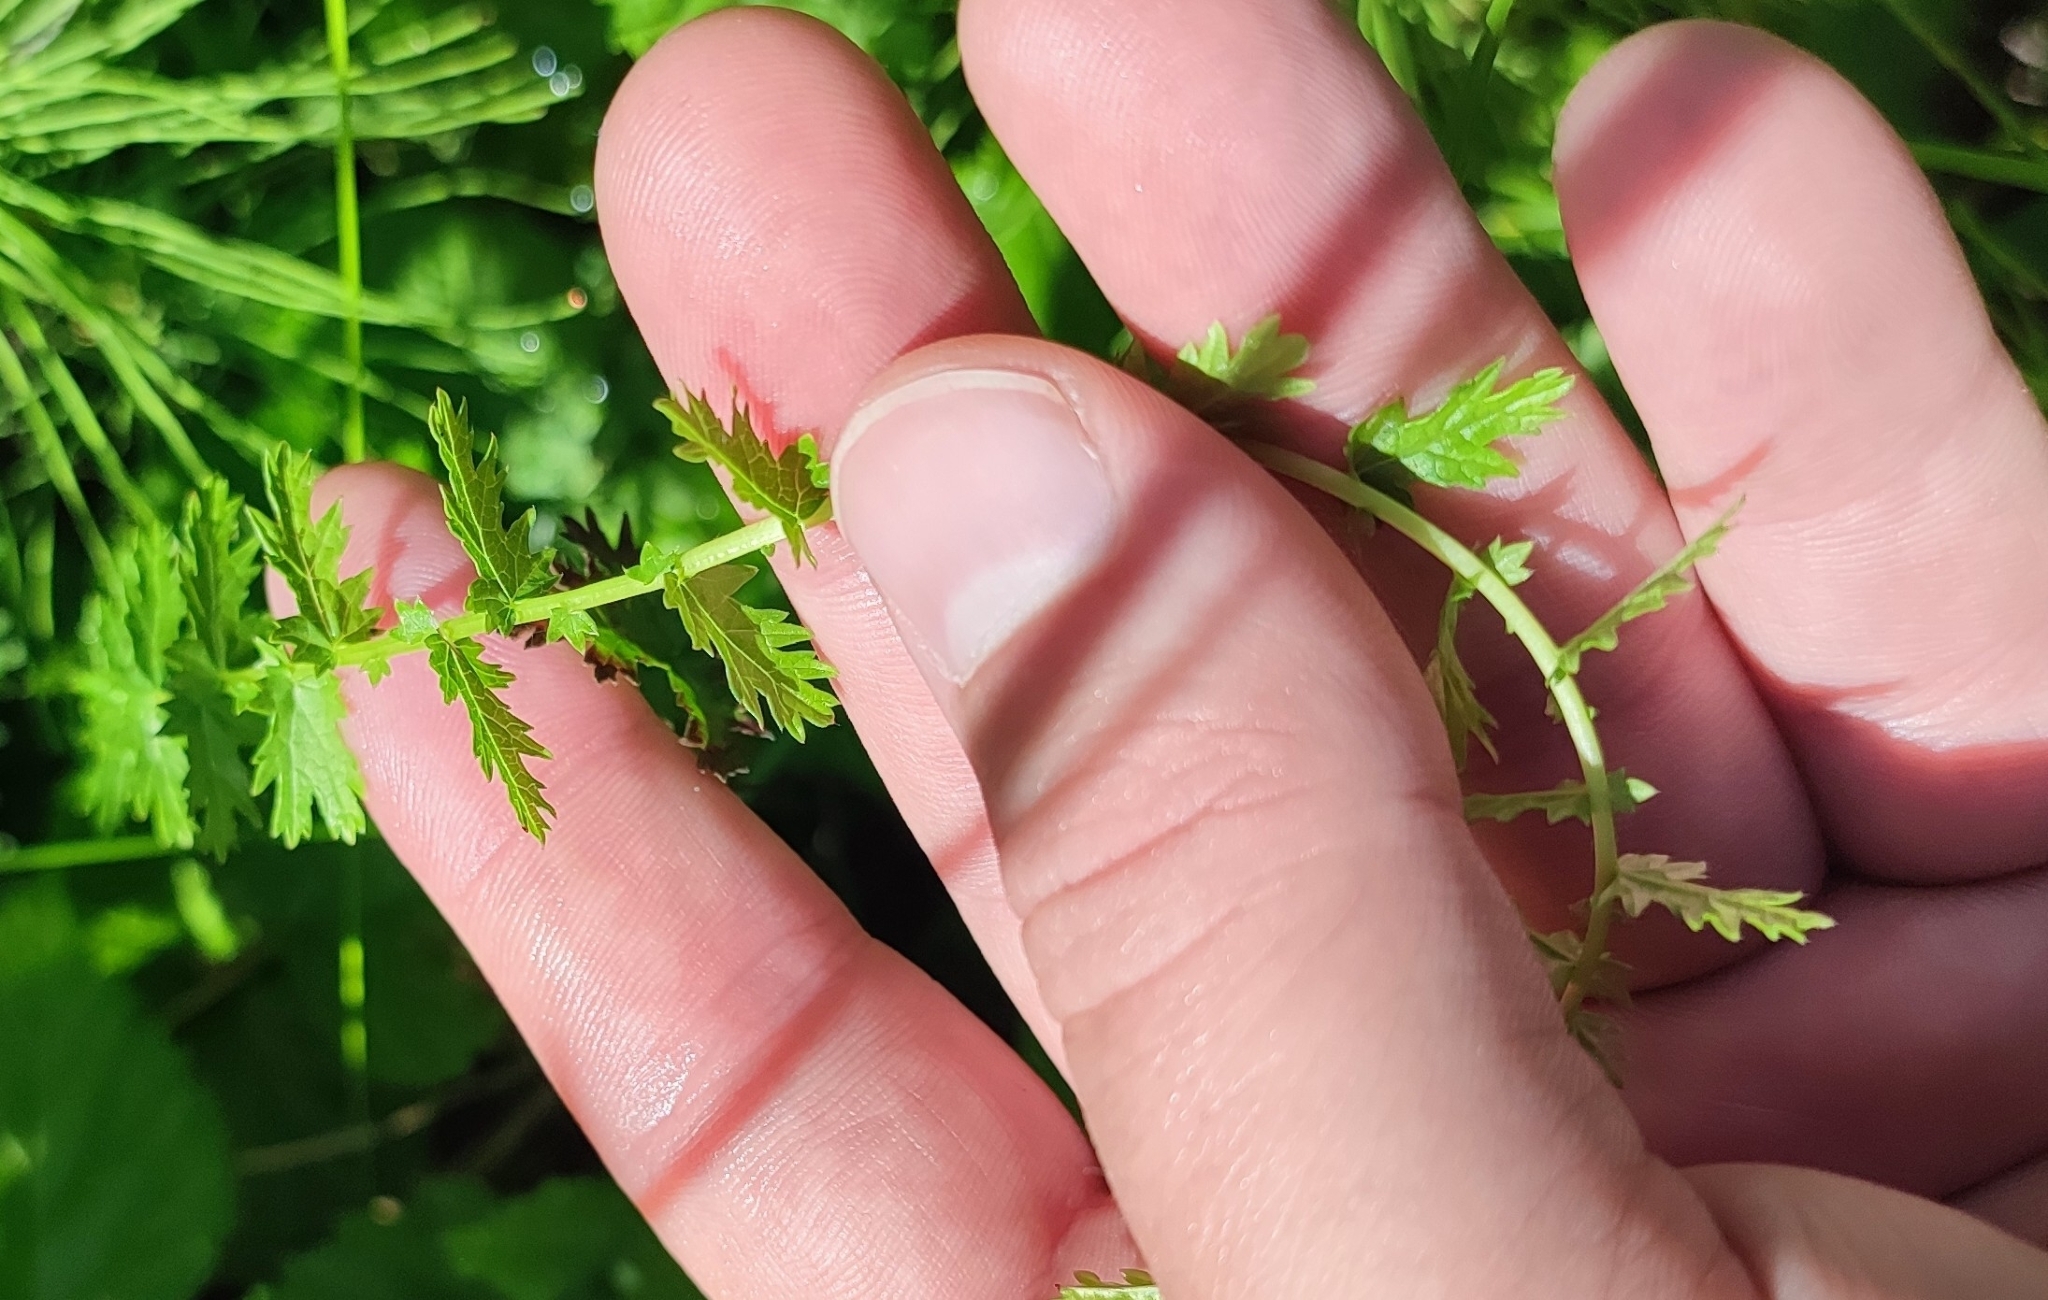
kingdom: Plantae
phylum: Tracheophyta
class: Magnoliopsida
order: Rosales
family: Rosaceae
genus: Filipendula
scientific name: Filipendula vulgaris
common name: Dropwort
